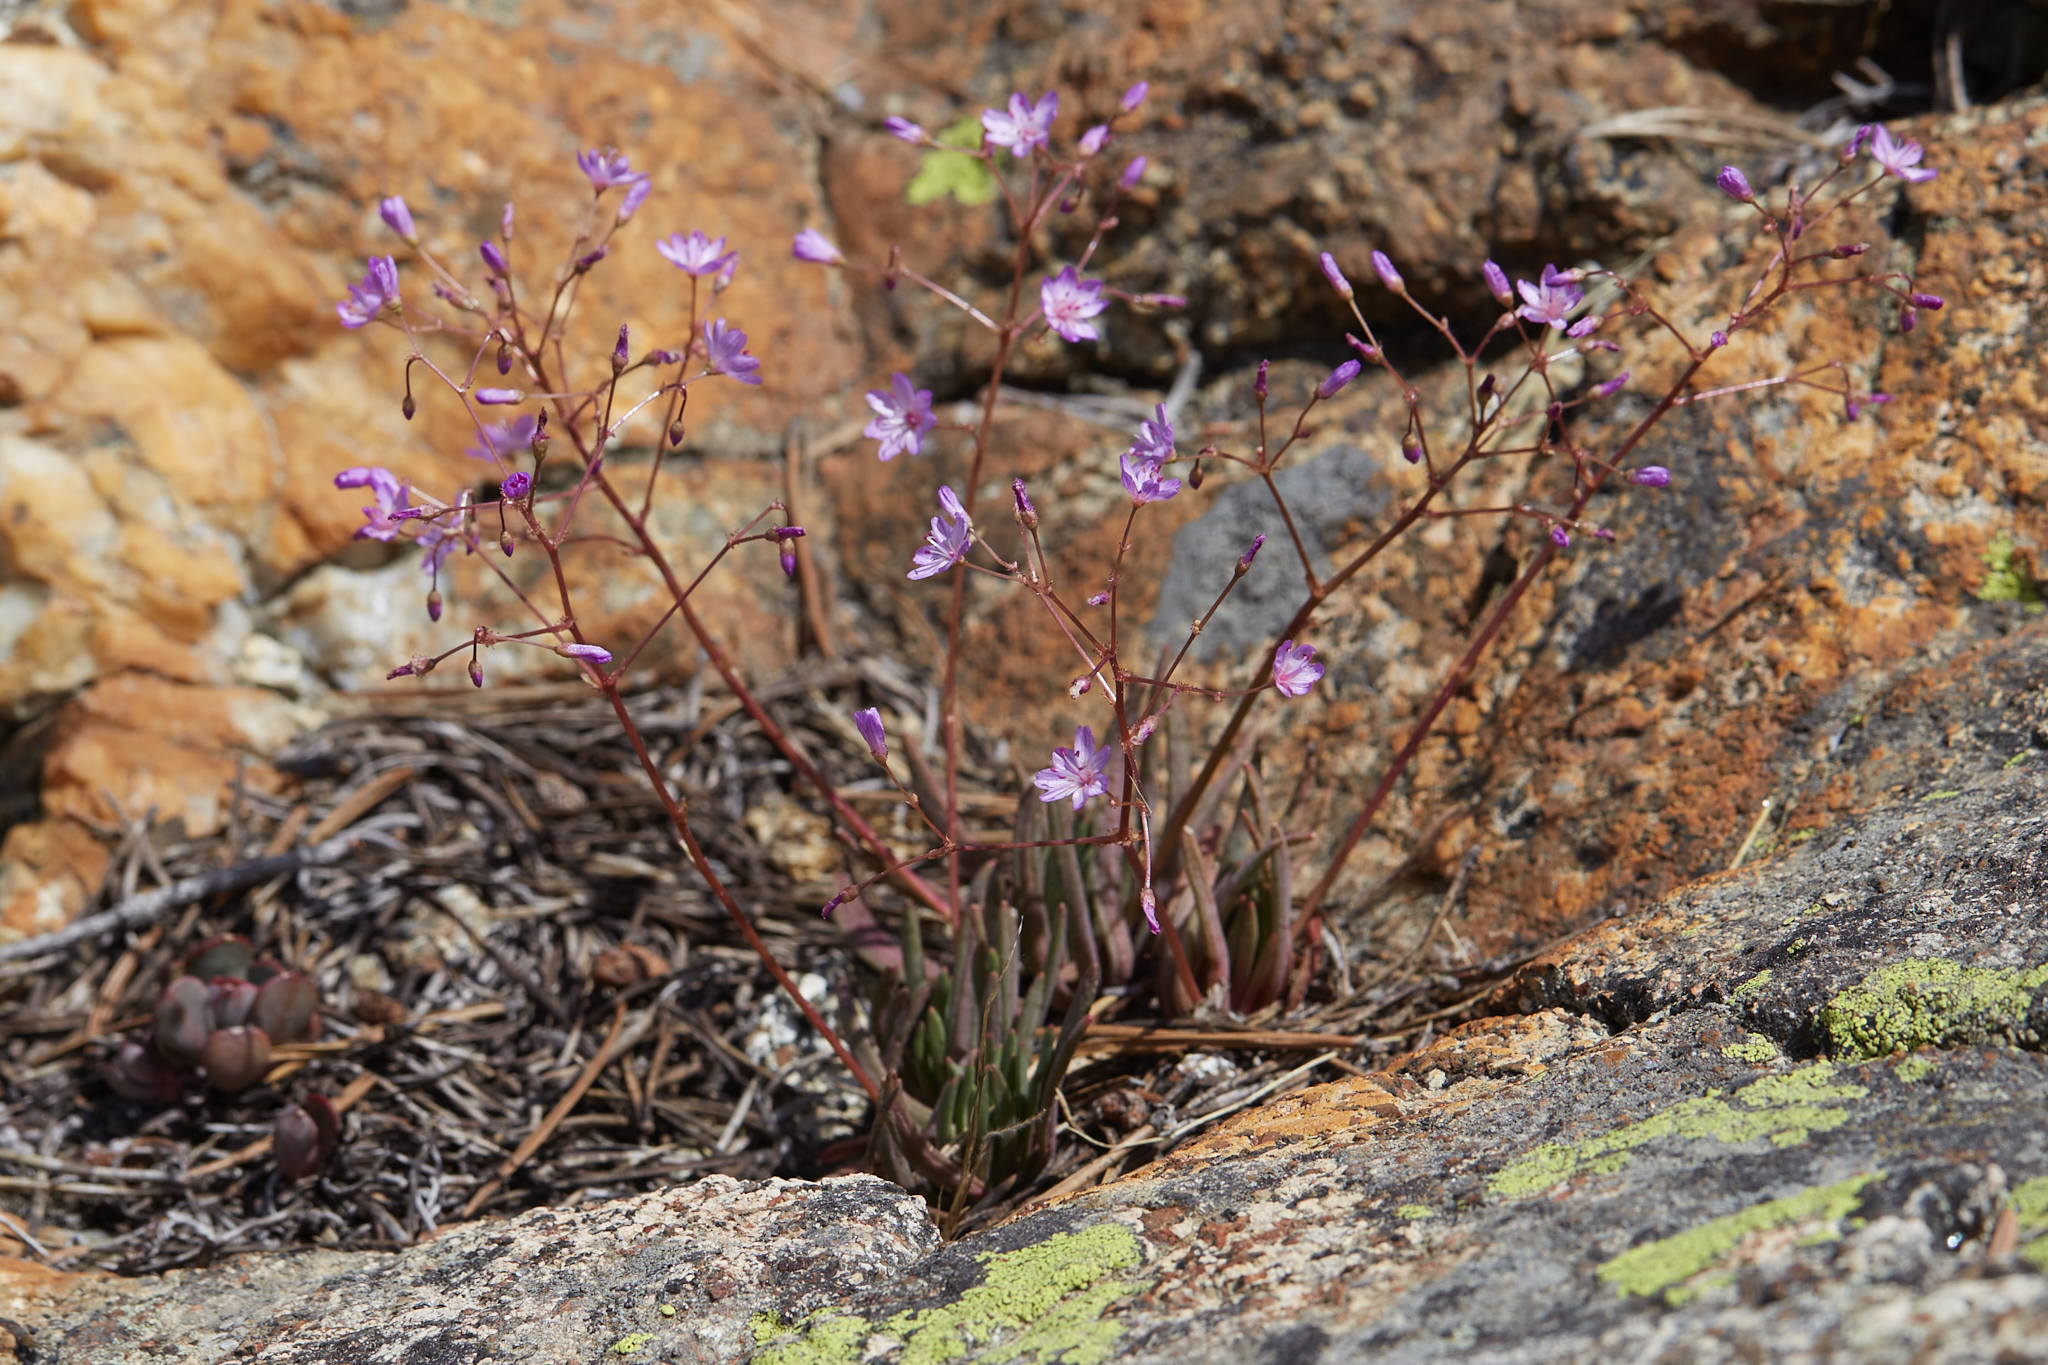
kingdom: Plantae
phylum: Tracheophyta
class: Magnoliopsida
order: Caryophyllales
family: Montiaceae
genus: Lewisia
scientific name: Lewisia leeana
